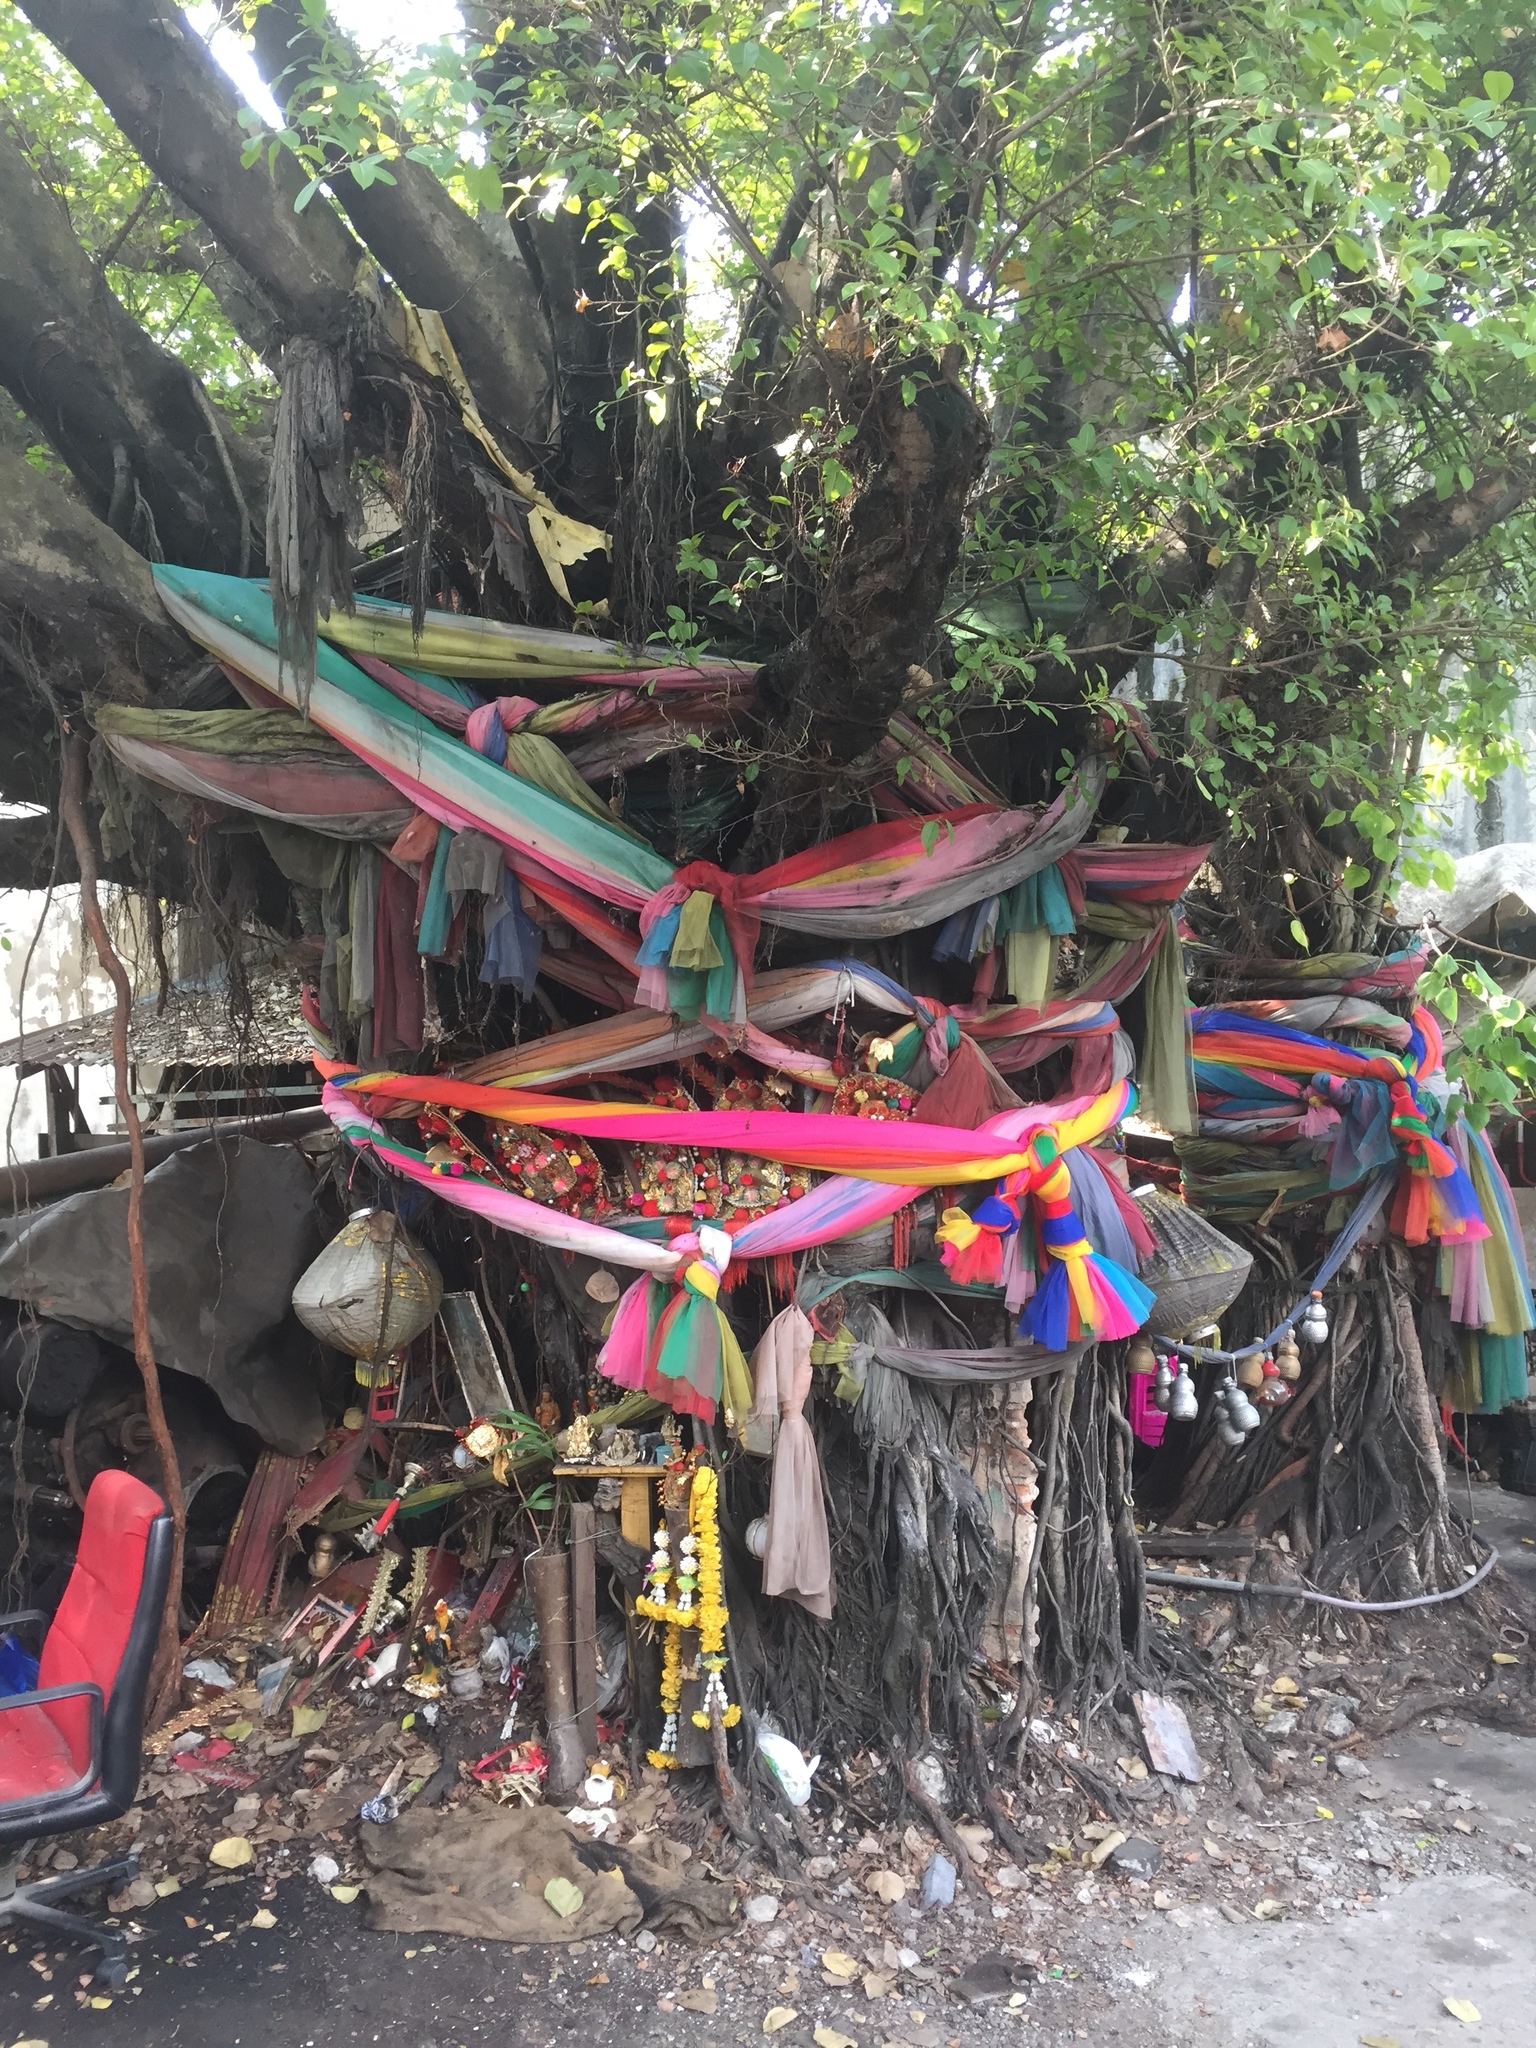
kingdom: Plantae
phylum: Tracheophyta
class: Magnoliopsida
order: Rosales
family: Moraceae
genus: Ficus
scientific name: Ficus benjamina
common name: Weeping fig
